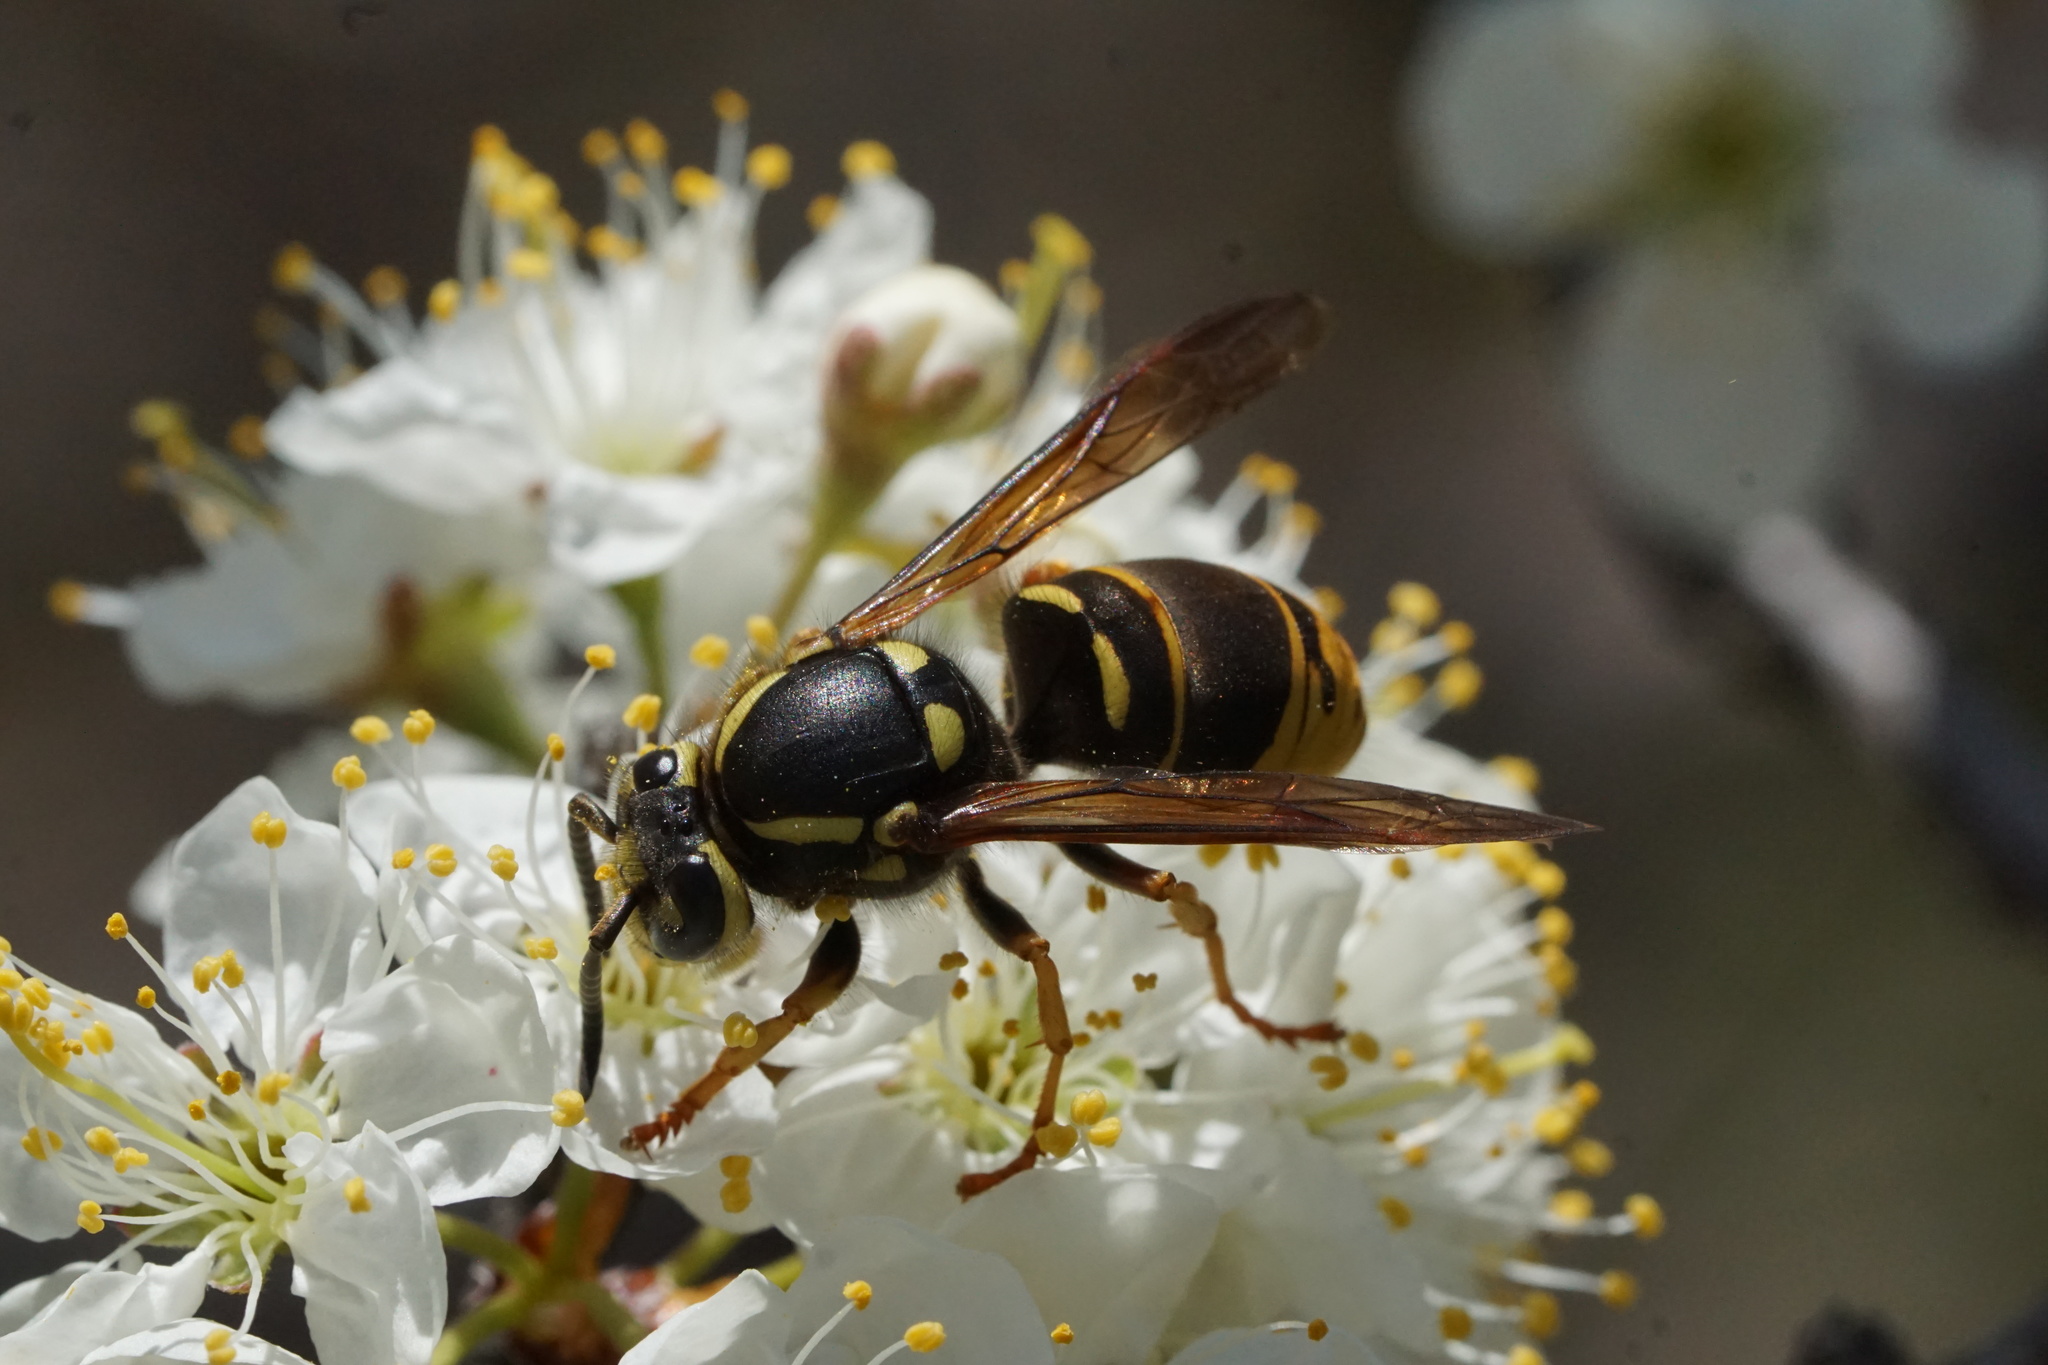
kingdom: Animalia
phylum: Arthropoda
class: Insecta
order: Hymenoptera
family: Vespidae
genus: Vespula
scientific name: Vespula vidua
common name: Widow yellowjacket
